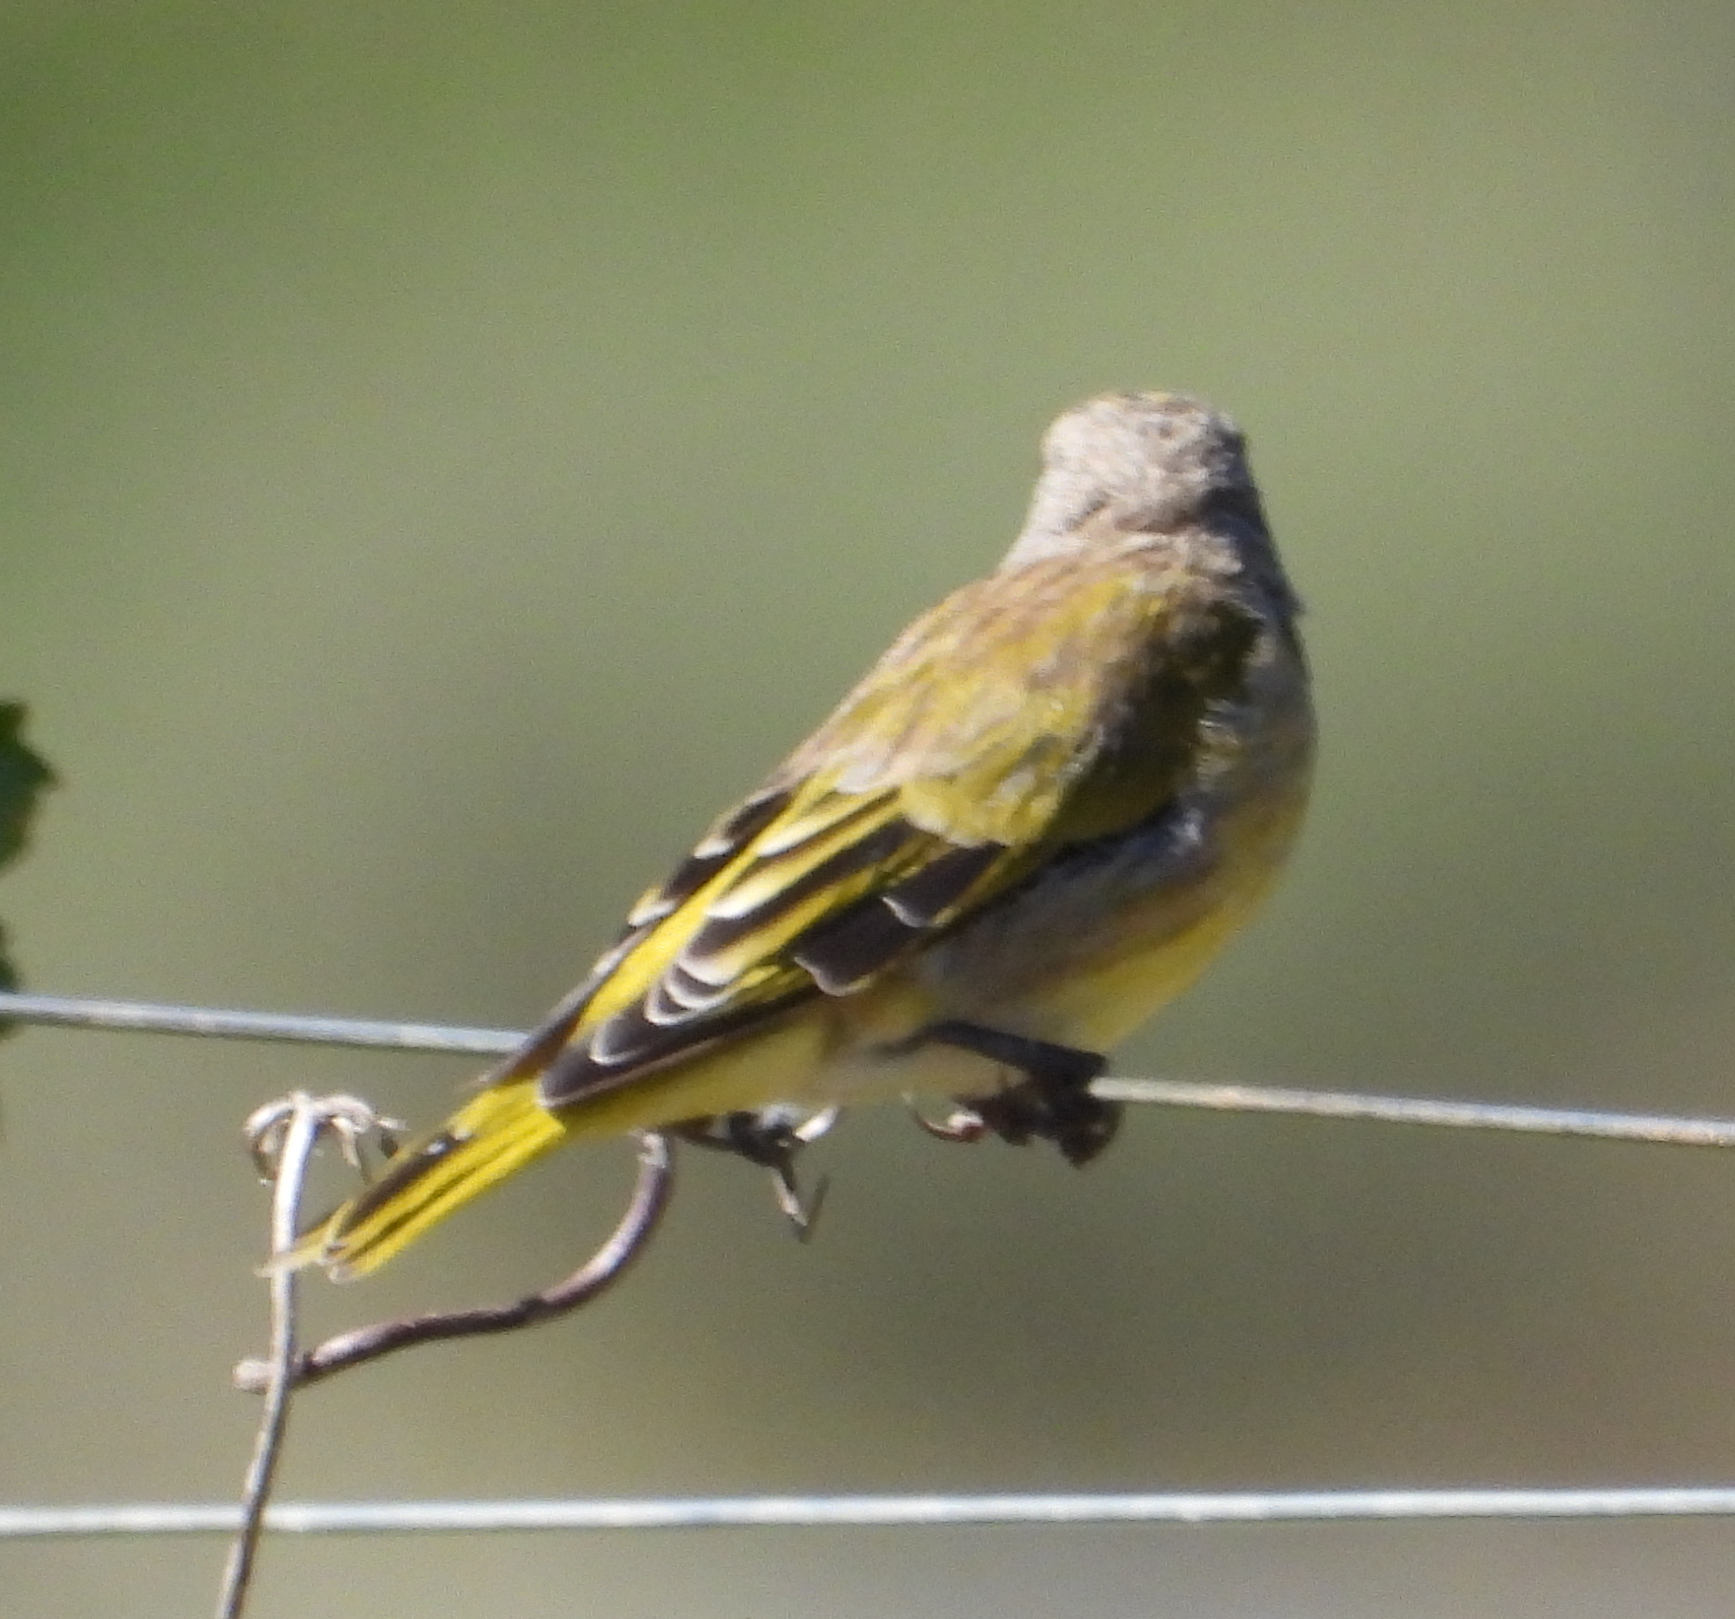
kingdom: Animalia
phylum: Chordata
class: Aves
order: Passeriformes
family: Fringillidae
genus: Serinus
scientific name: Serinus canicollis
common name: Cape canary
